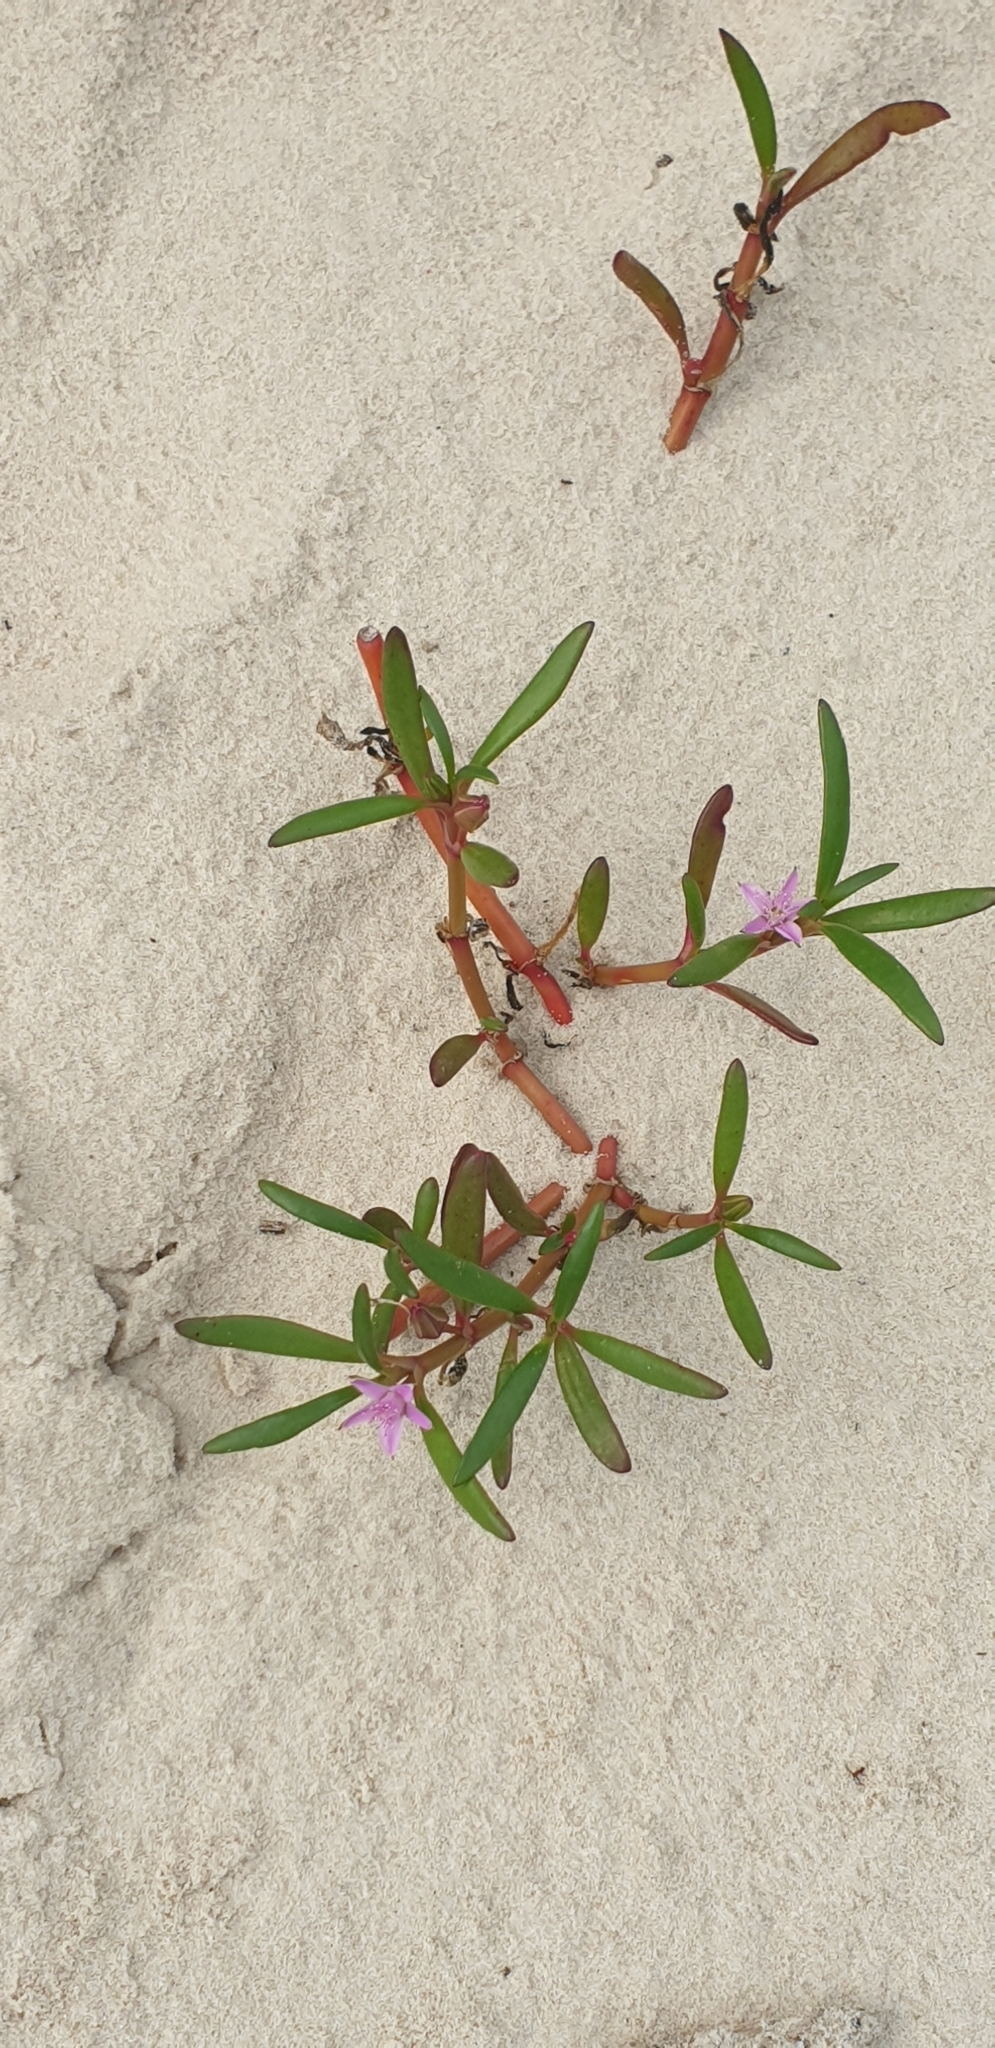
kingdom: Plantae
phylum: Tracheophyta
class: Magnoliopsida
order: Caryophyllales
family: Aizoaceae
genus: Sesuvium
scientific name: Sesuvium portulacastrum
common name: Sea-purslane
